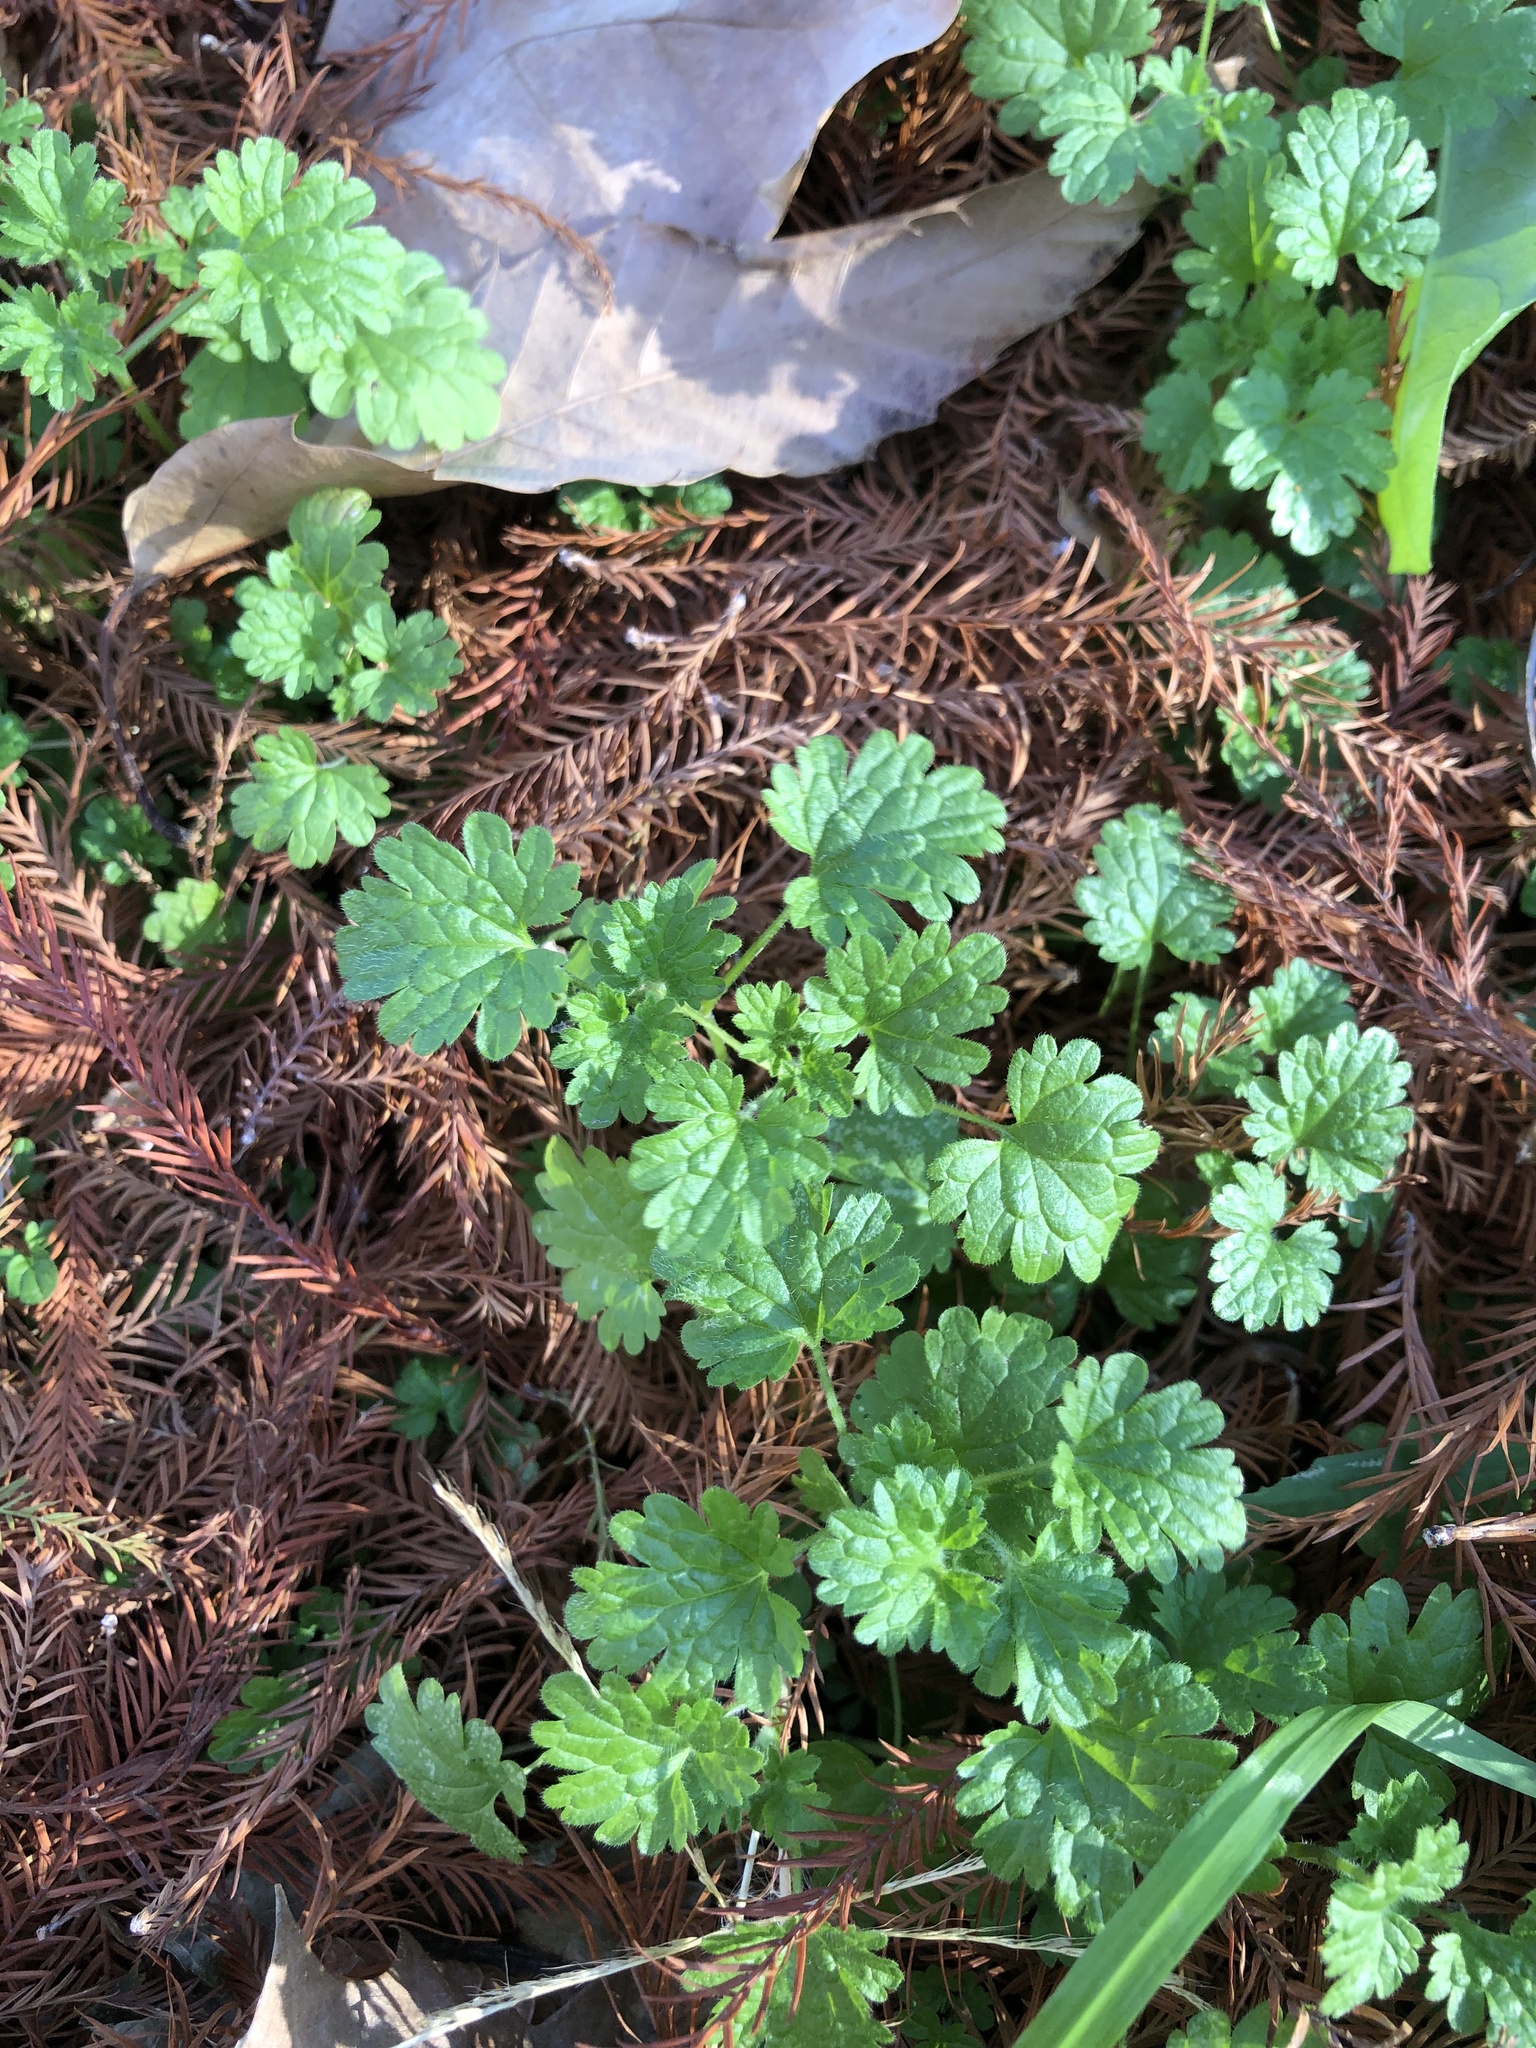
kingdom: Plantae
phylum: Tracheophyta
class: Magnoliopsida
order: Lamiales
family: Lamiaceae
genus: Lamium
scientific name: Lamium amplexicaule
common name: Henbit dead-nettle
